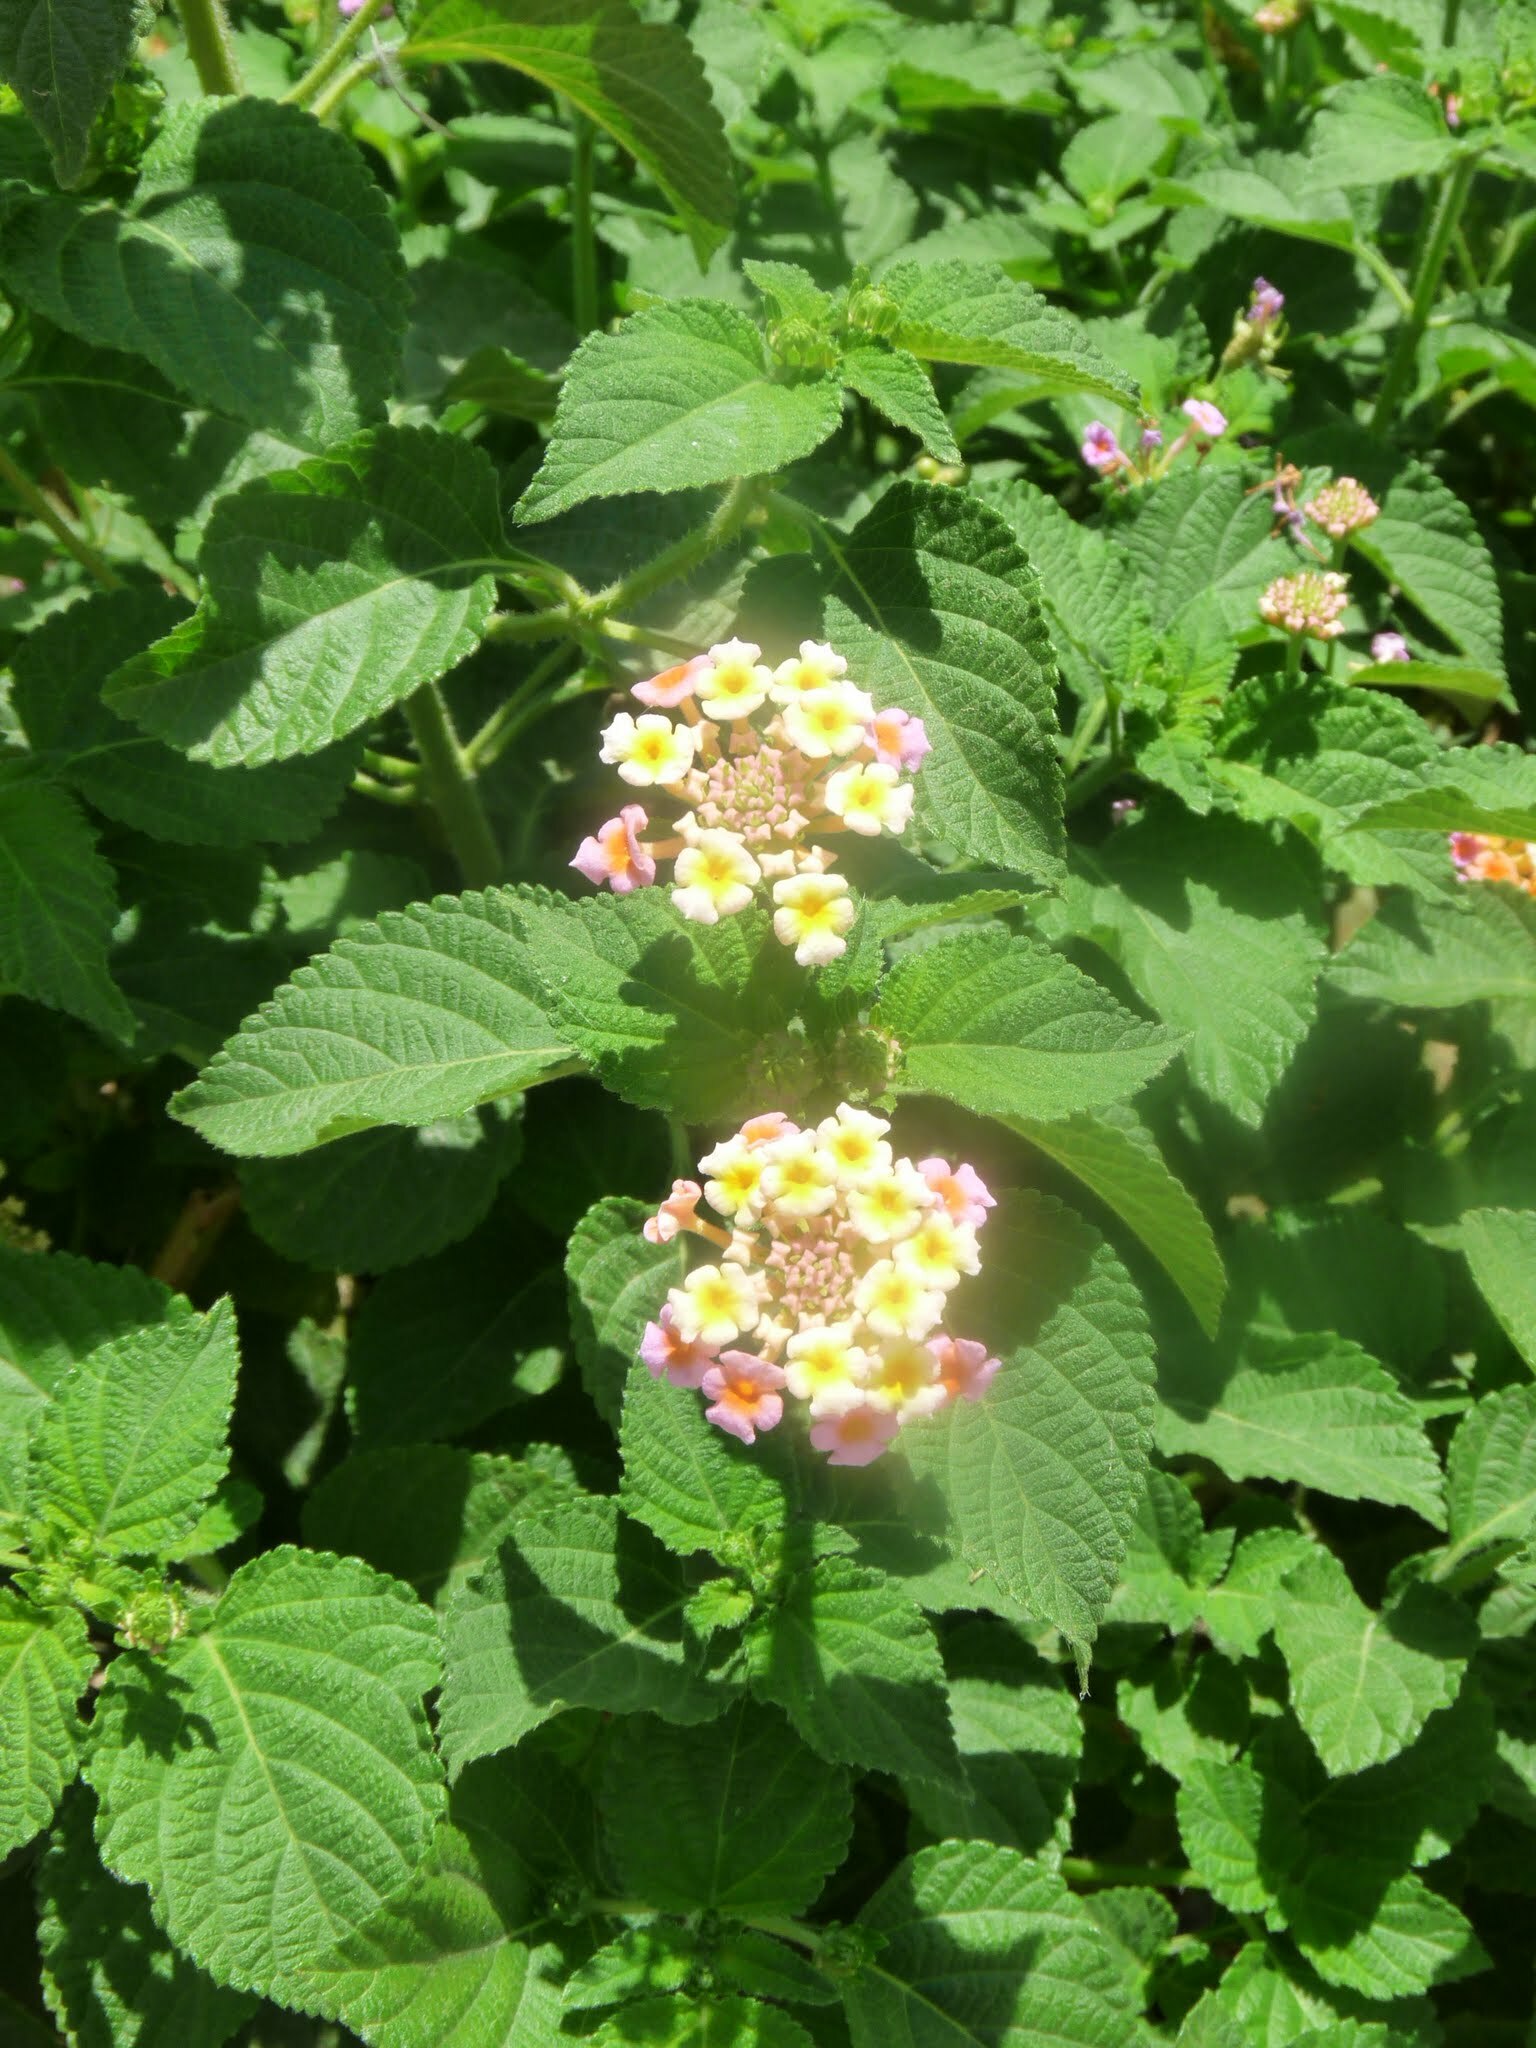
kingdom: Plantae
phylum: Tracheophyta
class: Magnoliopsida
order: Lamiales
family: Verbenaceae
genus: Lantana
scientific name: Lantana camara
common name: Lantana
